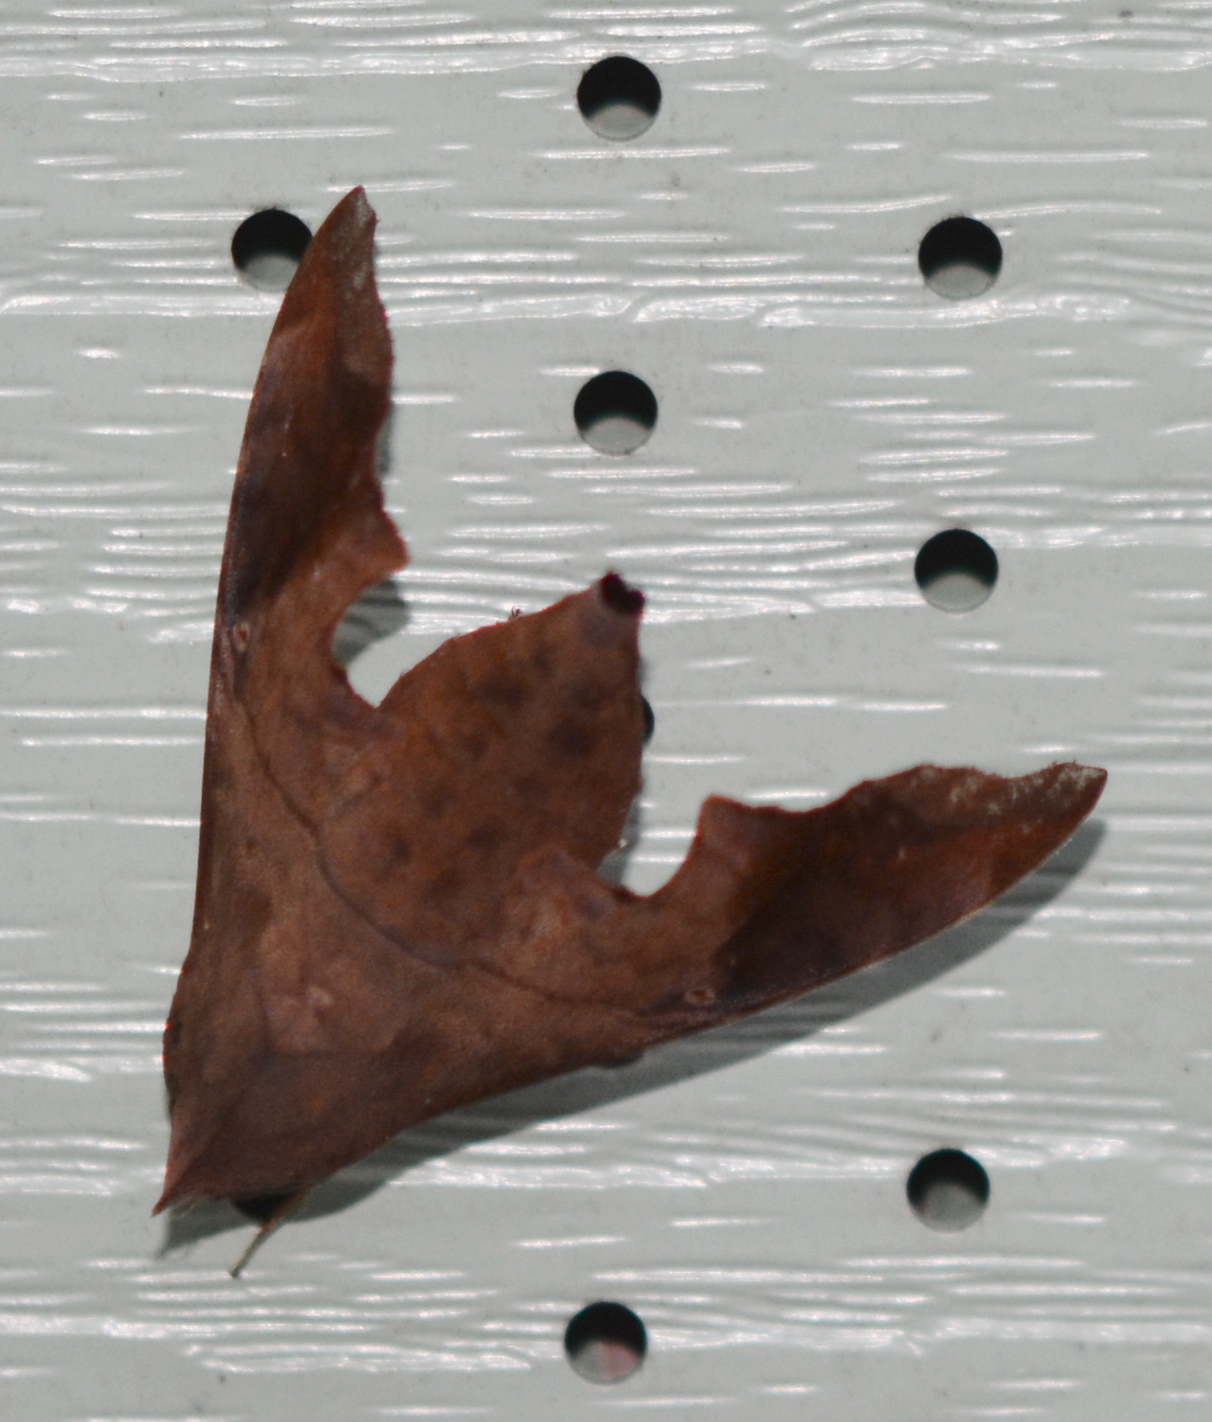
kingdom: Animalia
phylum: Arthropoda
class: Insecta
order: Lepidoptera
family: Sphingidae
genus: Enyo
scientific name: Enyo lugubris
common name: Mournful sphinx
